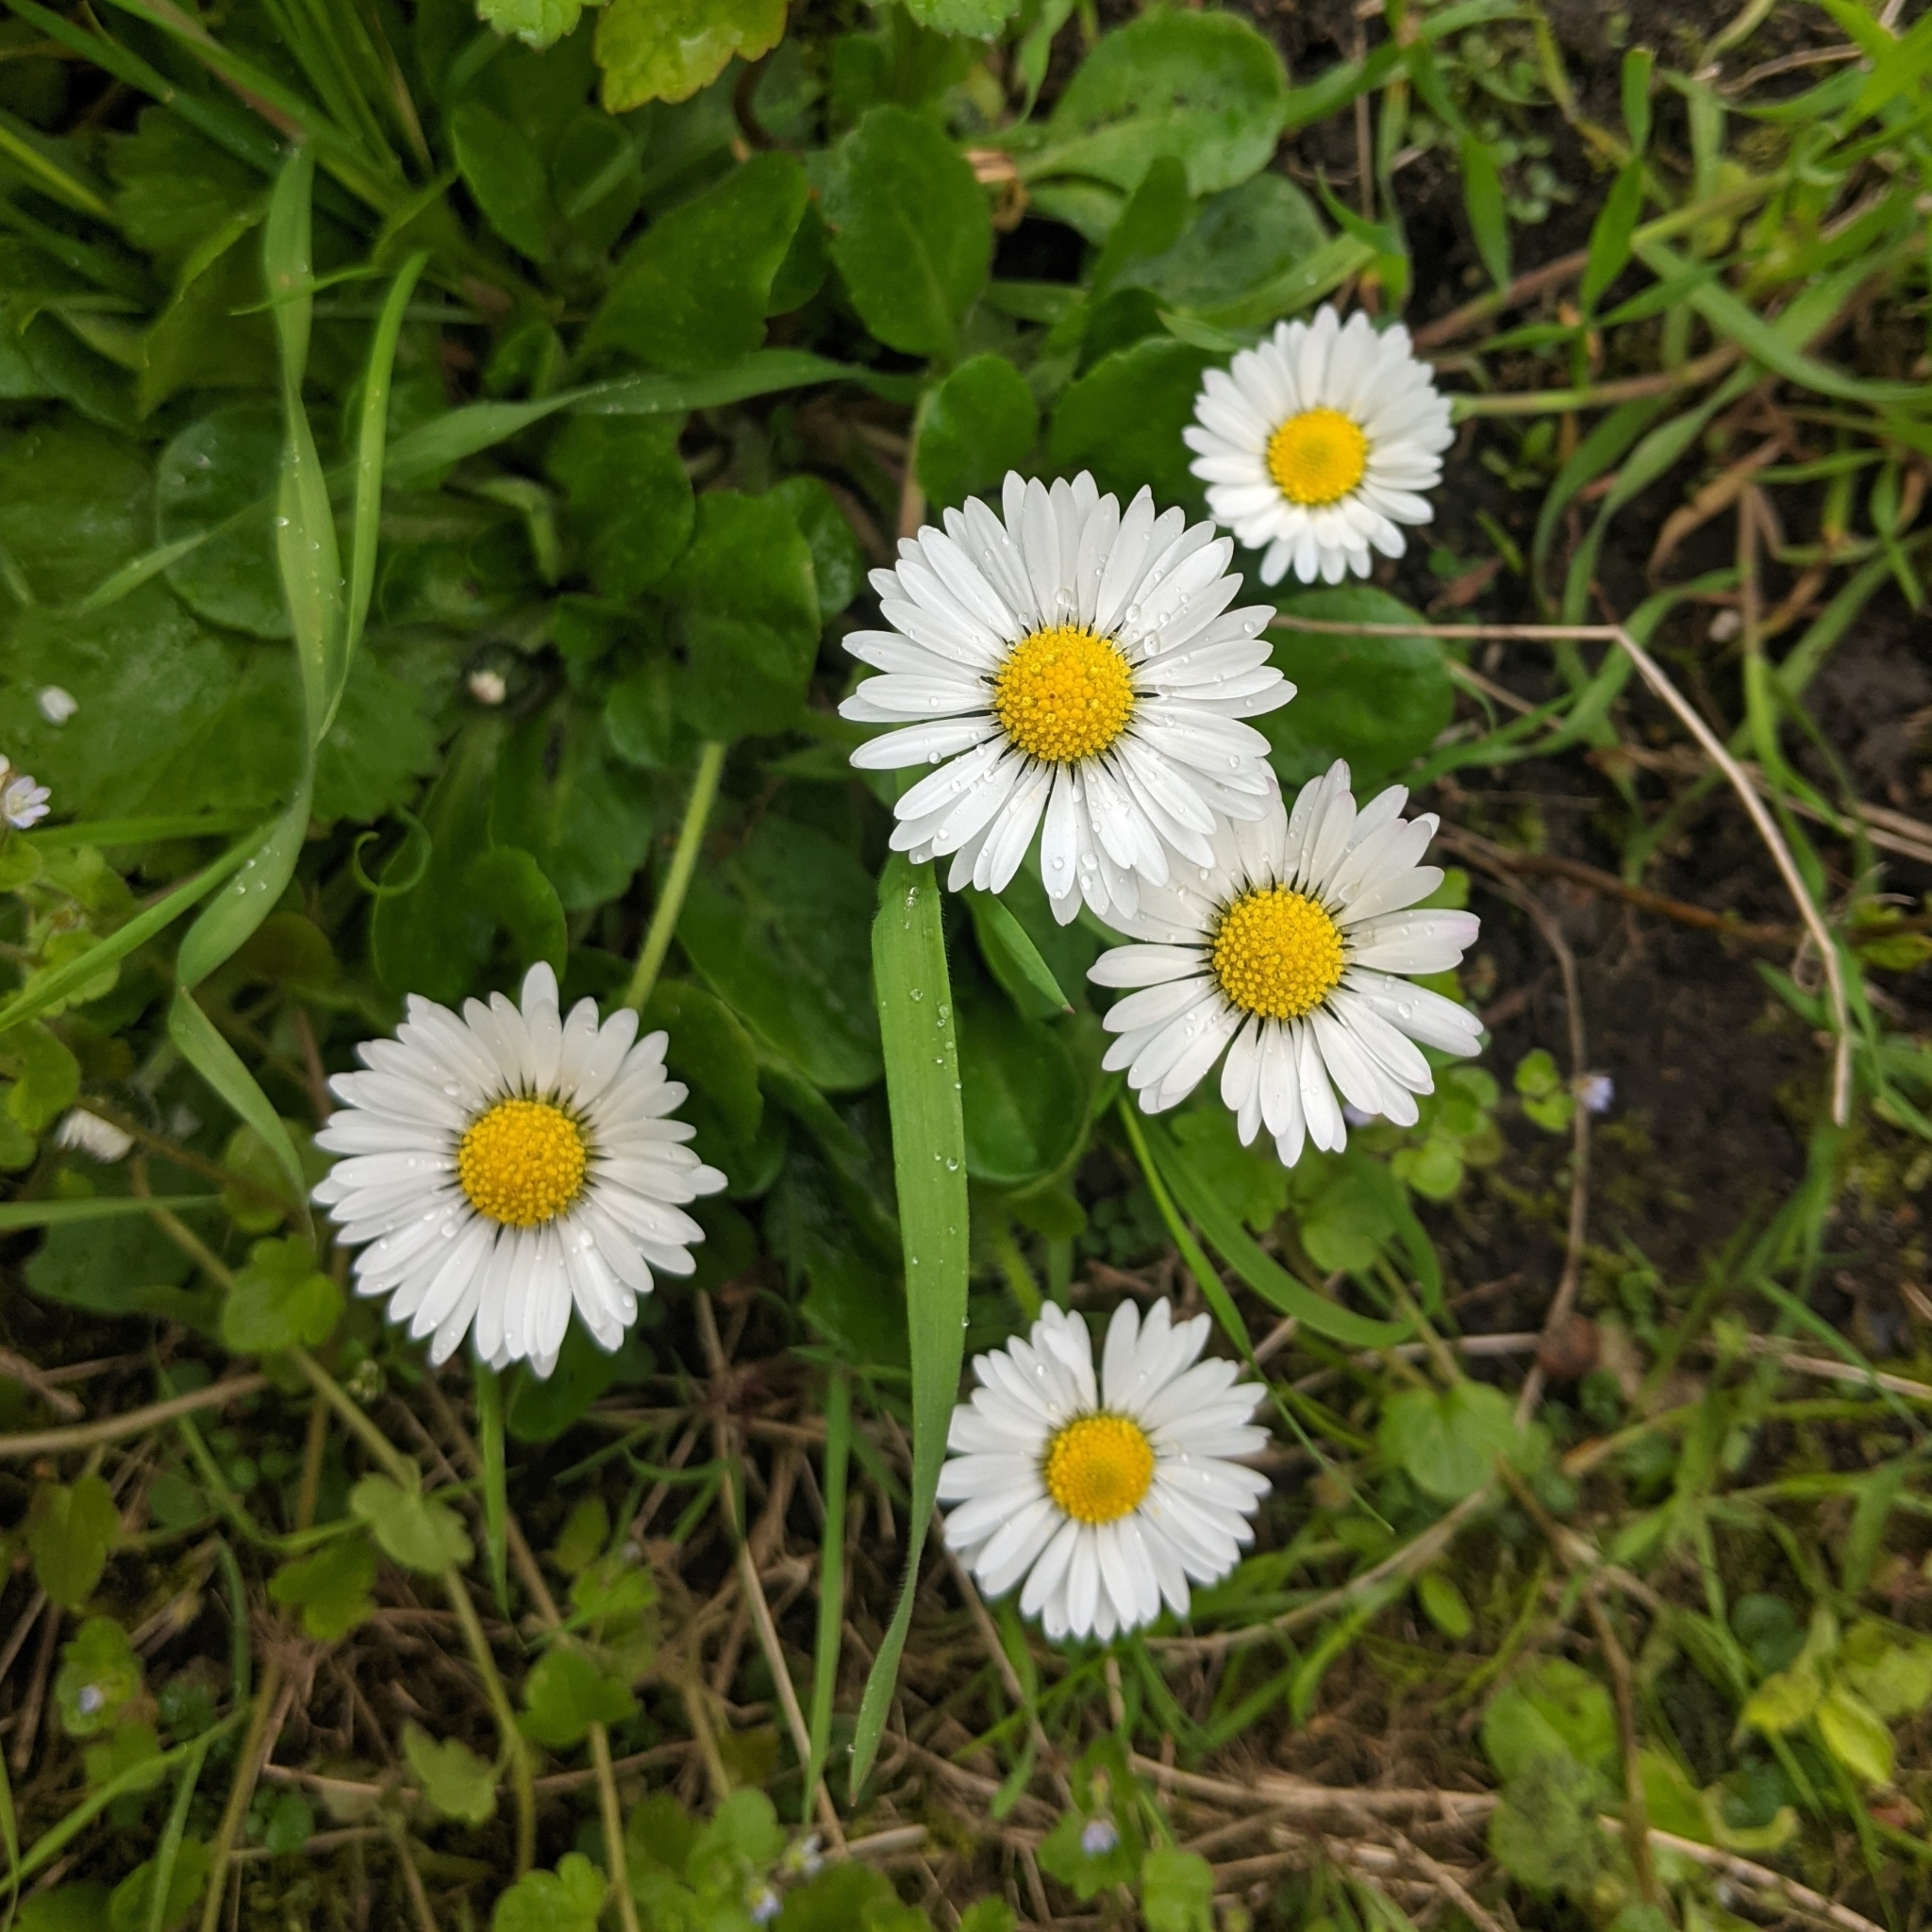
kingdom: Plantae
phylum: Tracheophyta
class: Magnoliopsida
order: Asterales
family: Asteraceae
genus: Bellis
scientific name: Bellis perennis
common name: Lawndaisy
